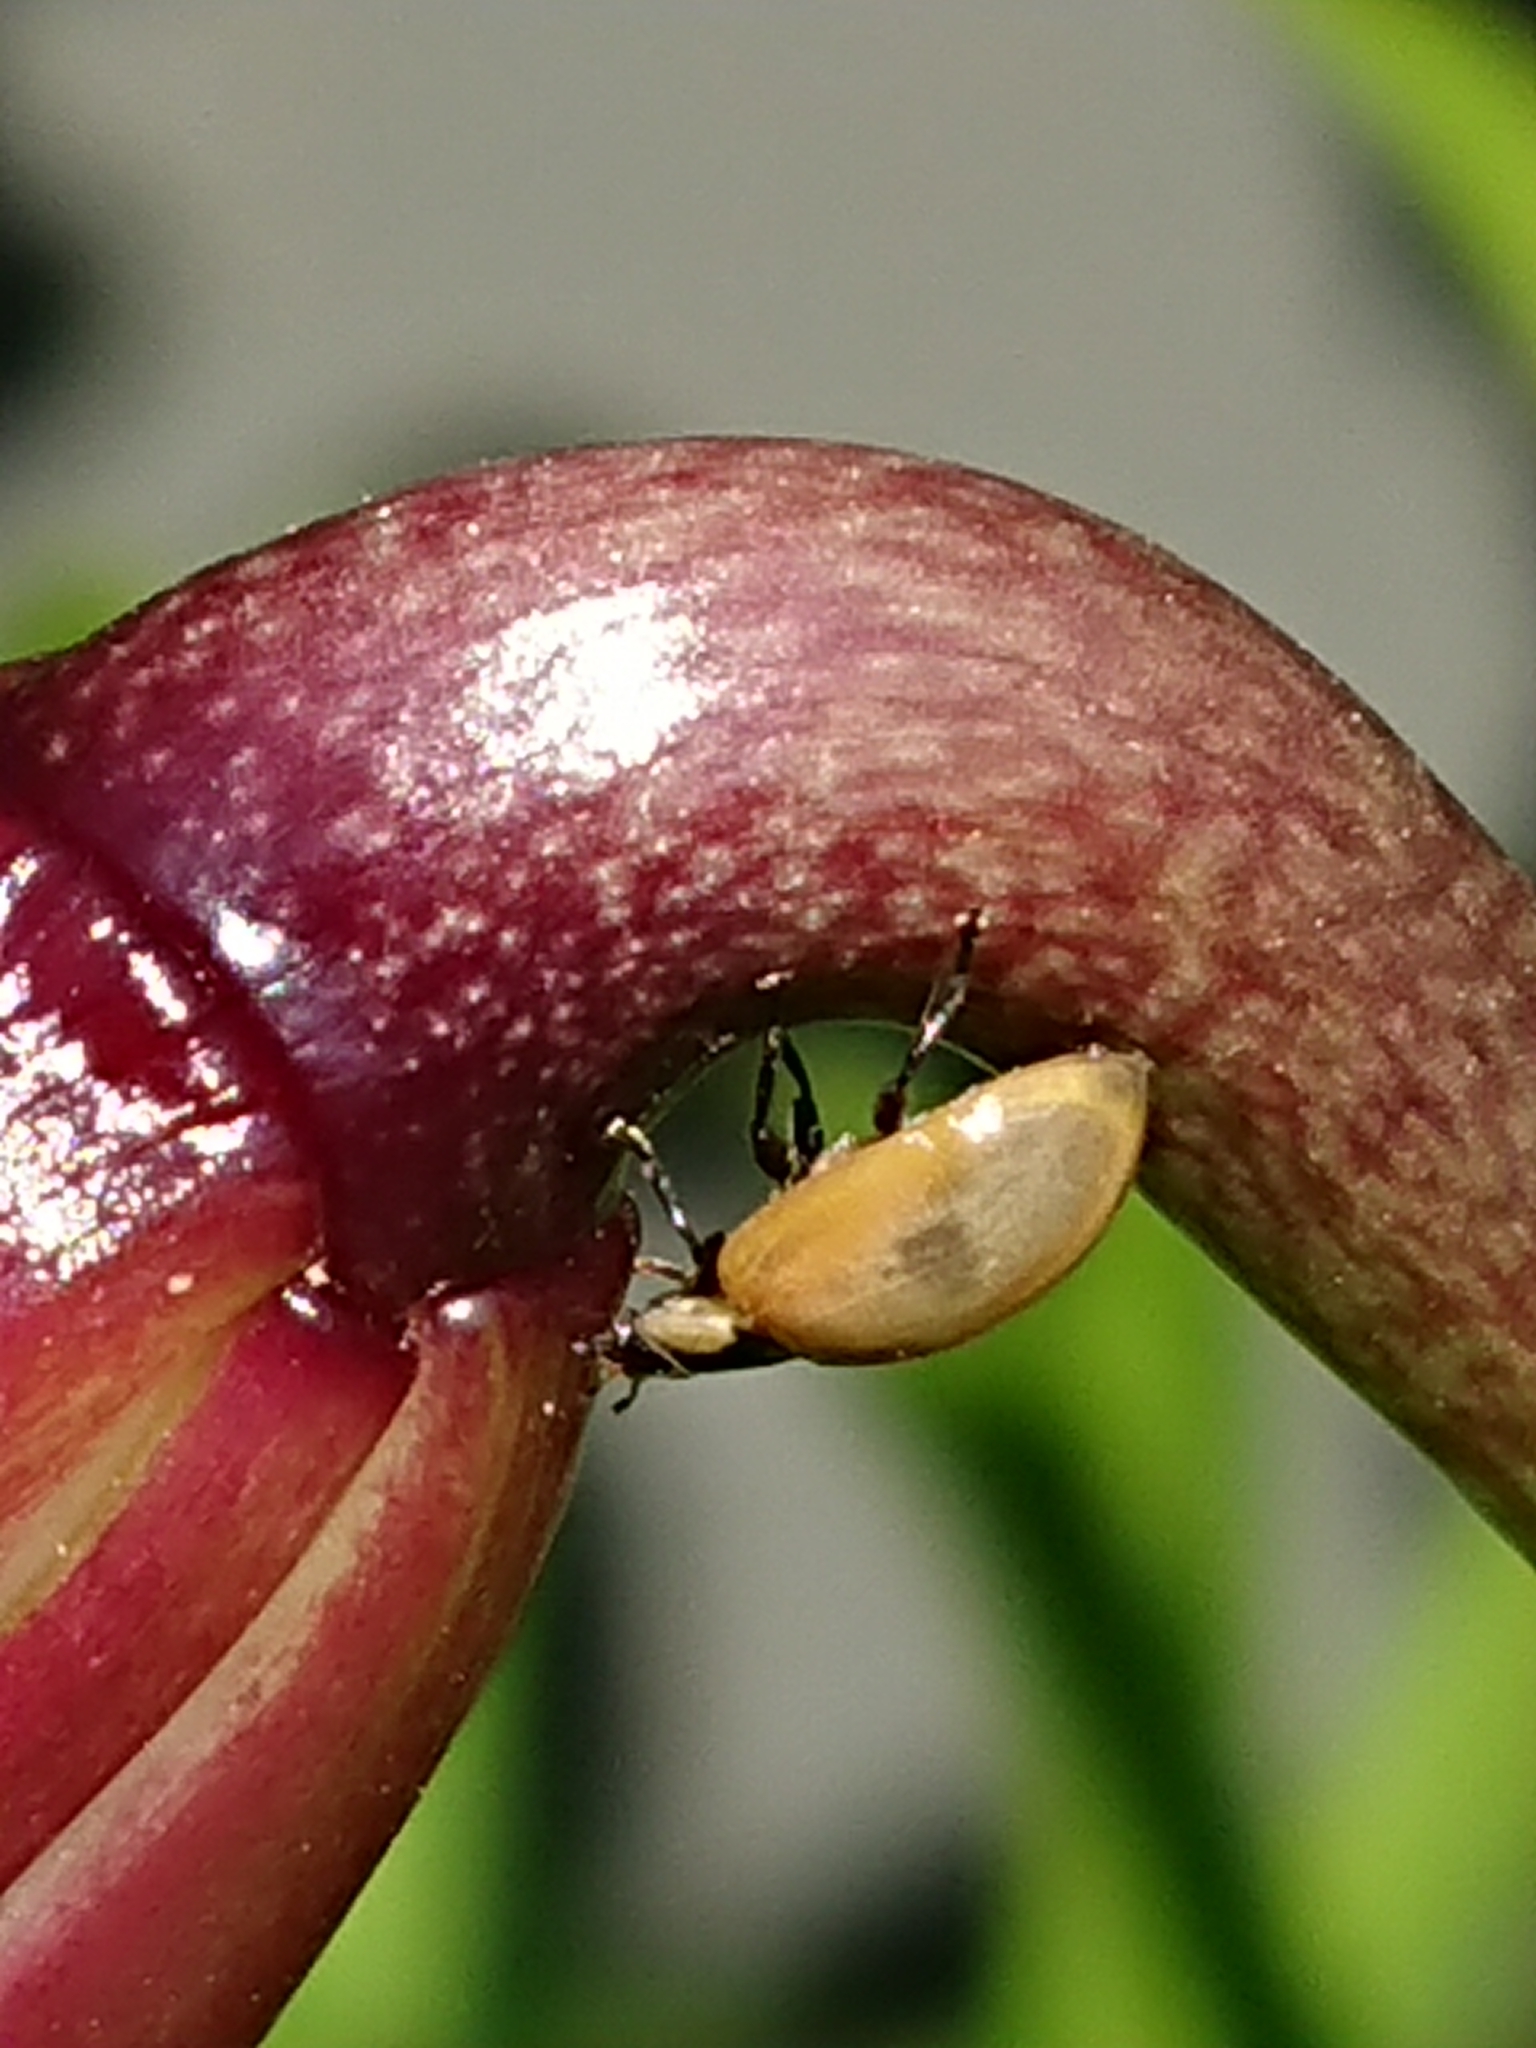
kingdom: Animalia
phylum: Arthropoda
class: Insecta
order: Coleoptera
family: Coccinellidae
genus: Adalia
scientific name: Adalia bipunctata
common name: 2-spot ladybird
